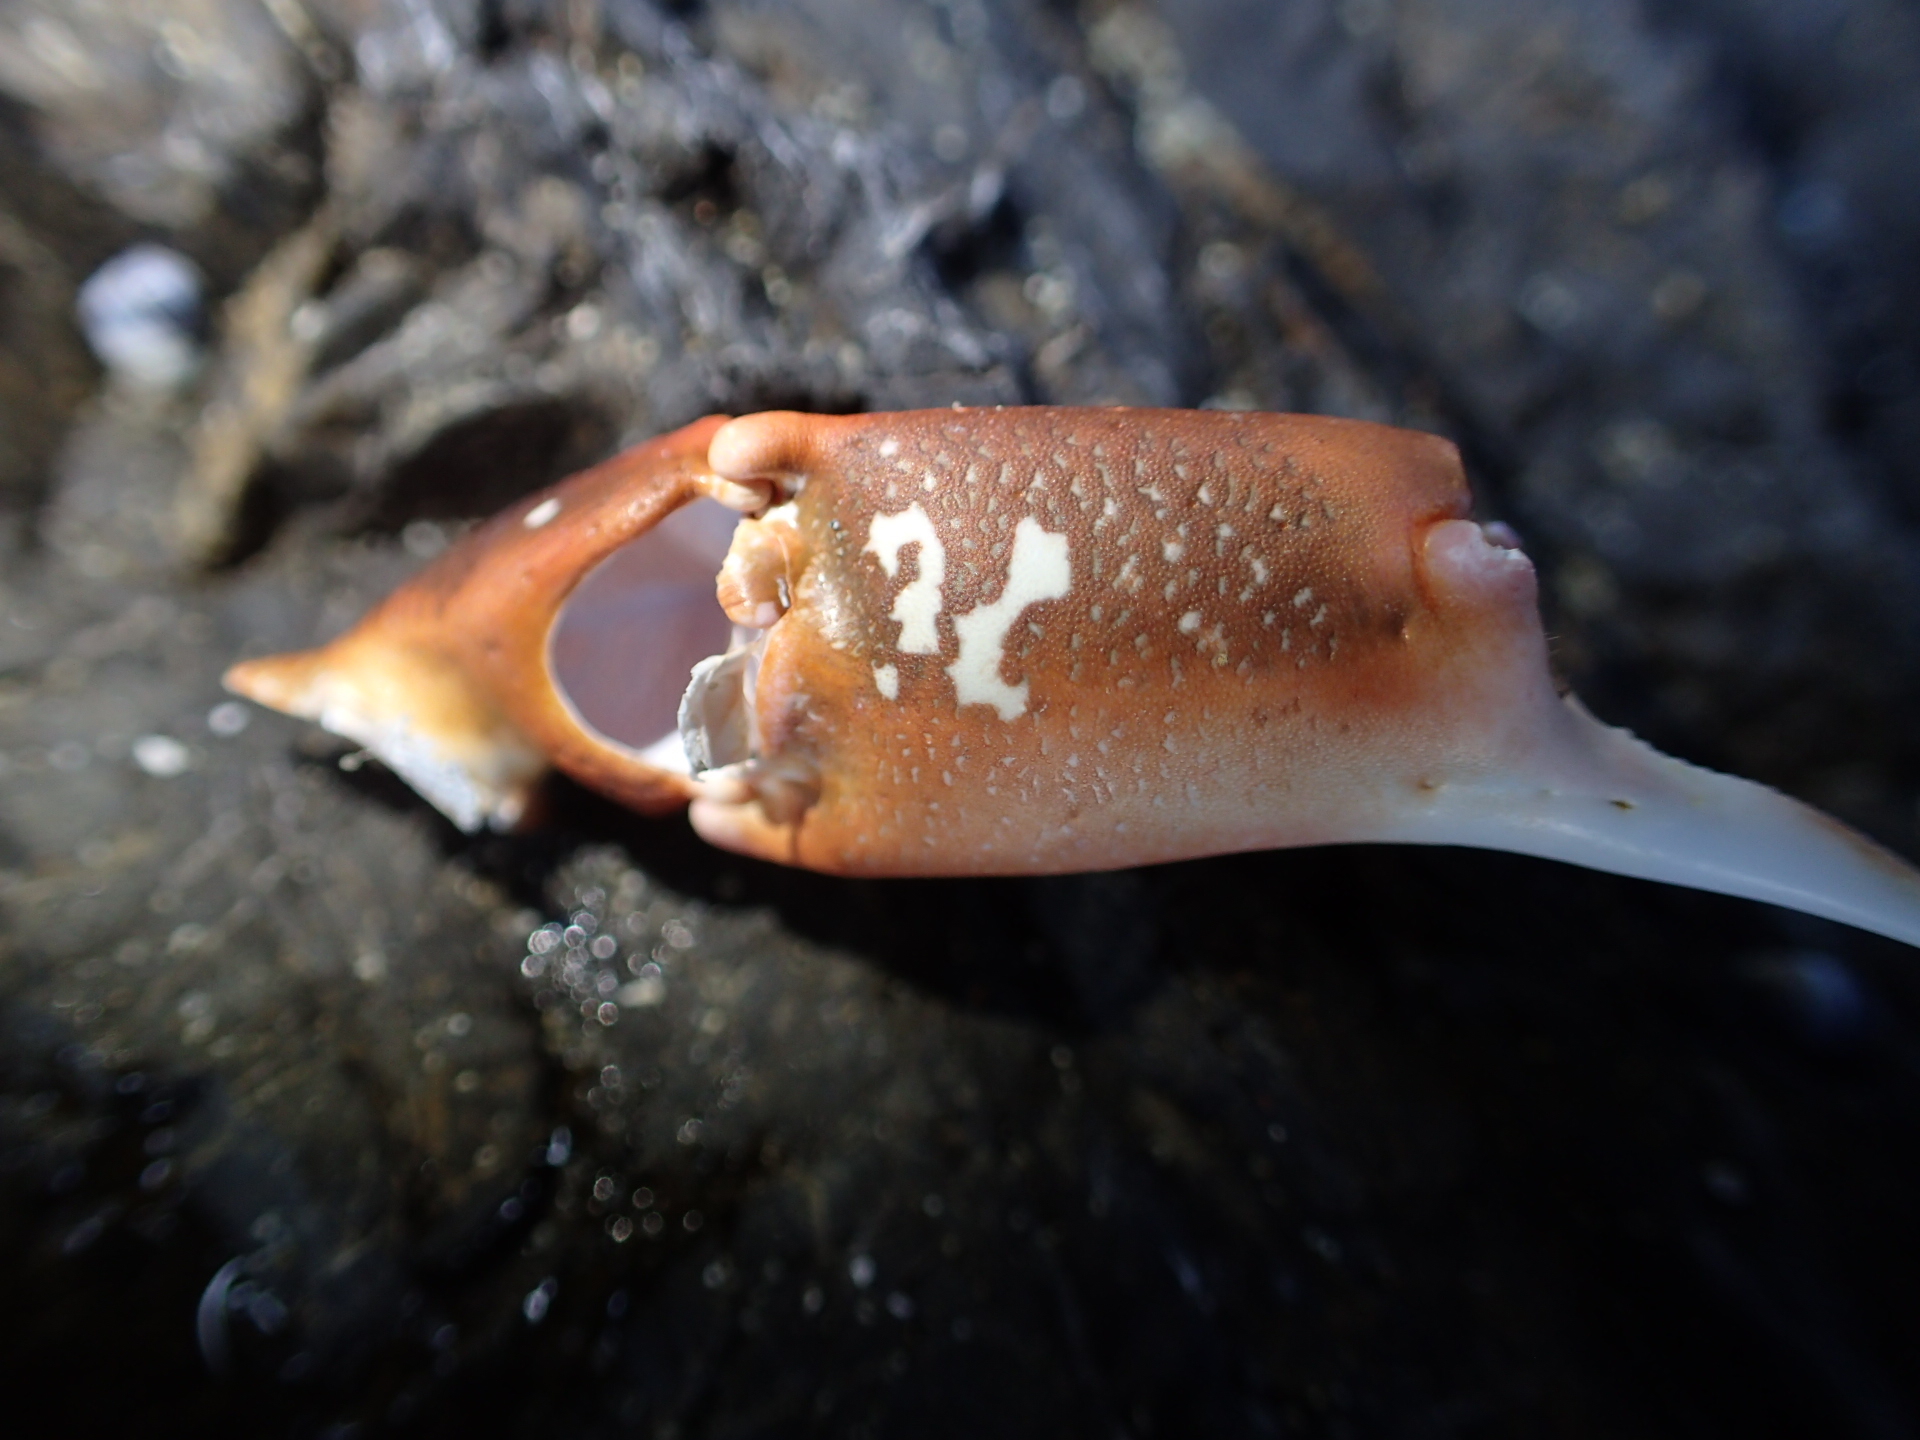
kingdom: Animalia
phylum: Arthropoda
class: Malacostraca
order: Decapoda
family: Majidae
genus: Notomithrax
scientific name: Notomithrax ursus
